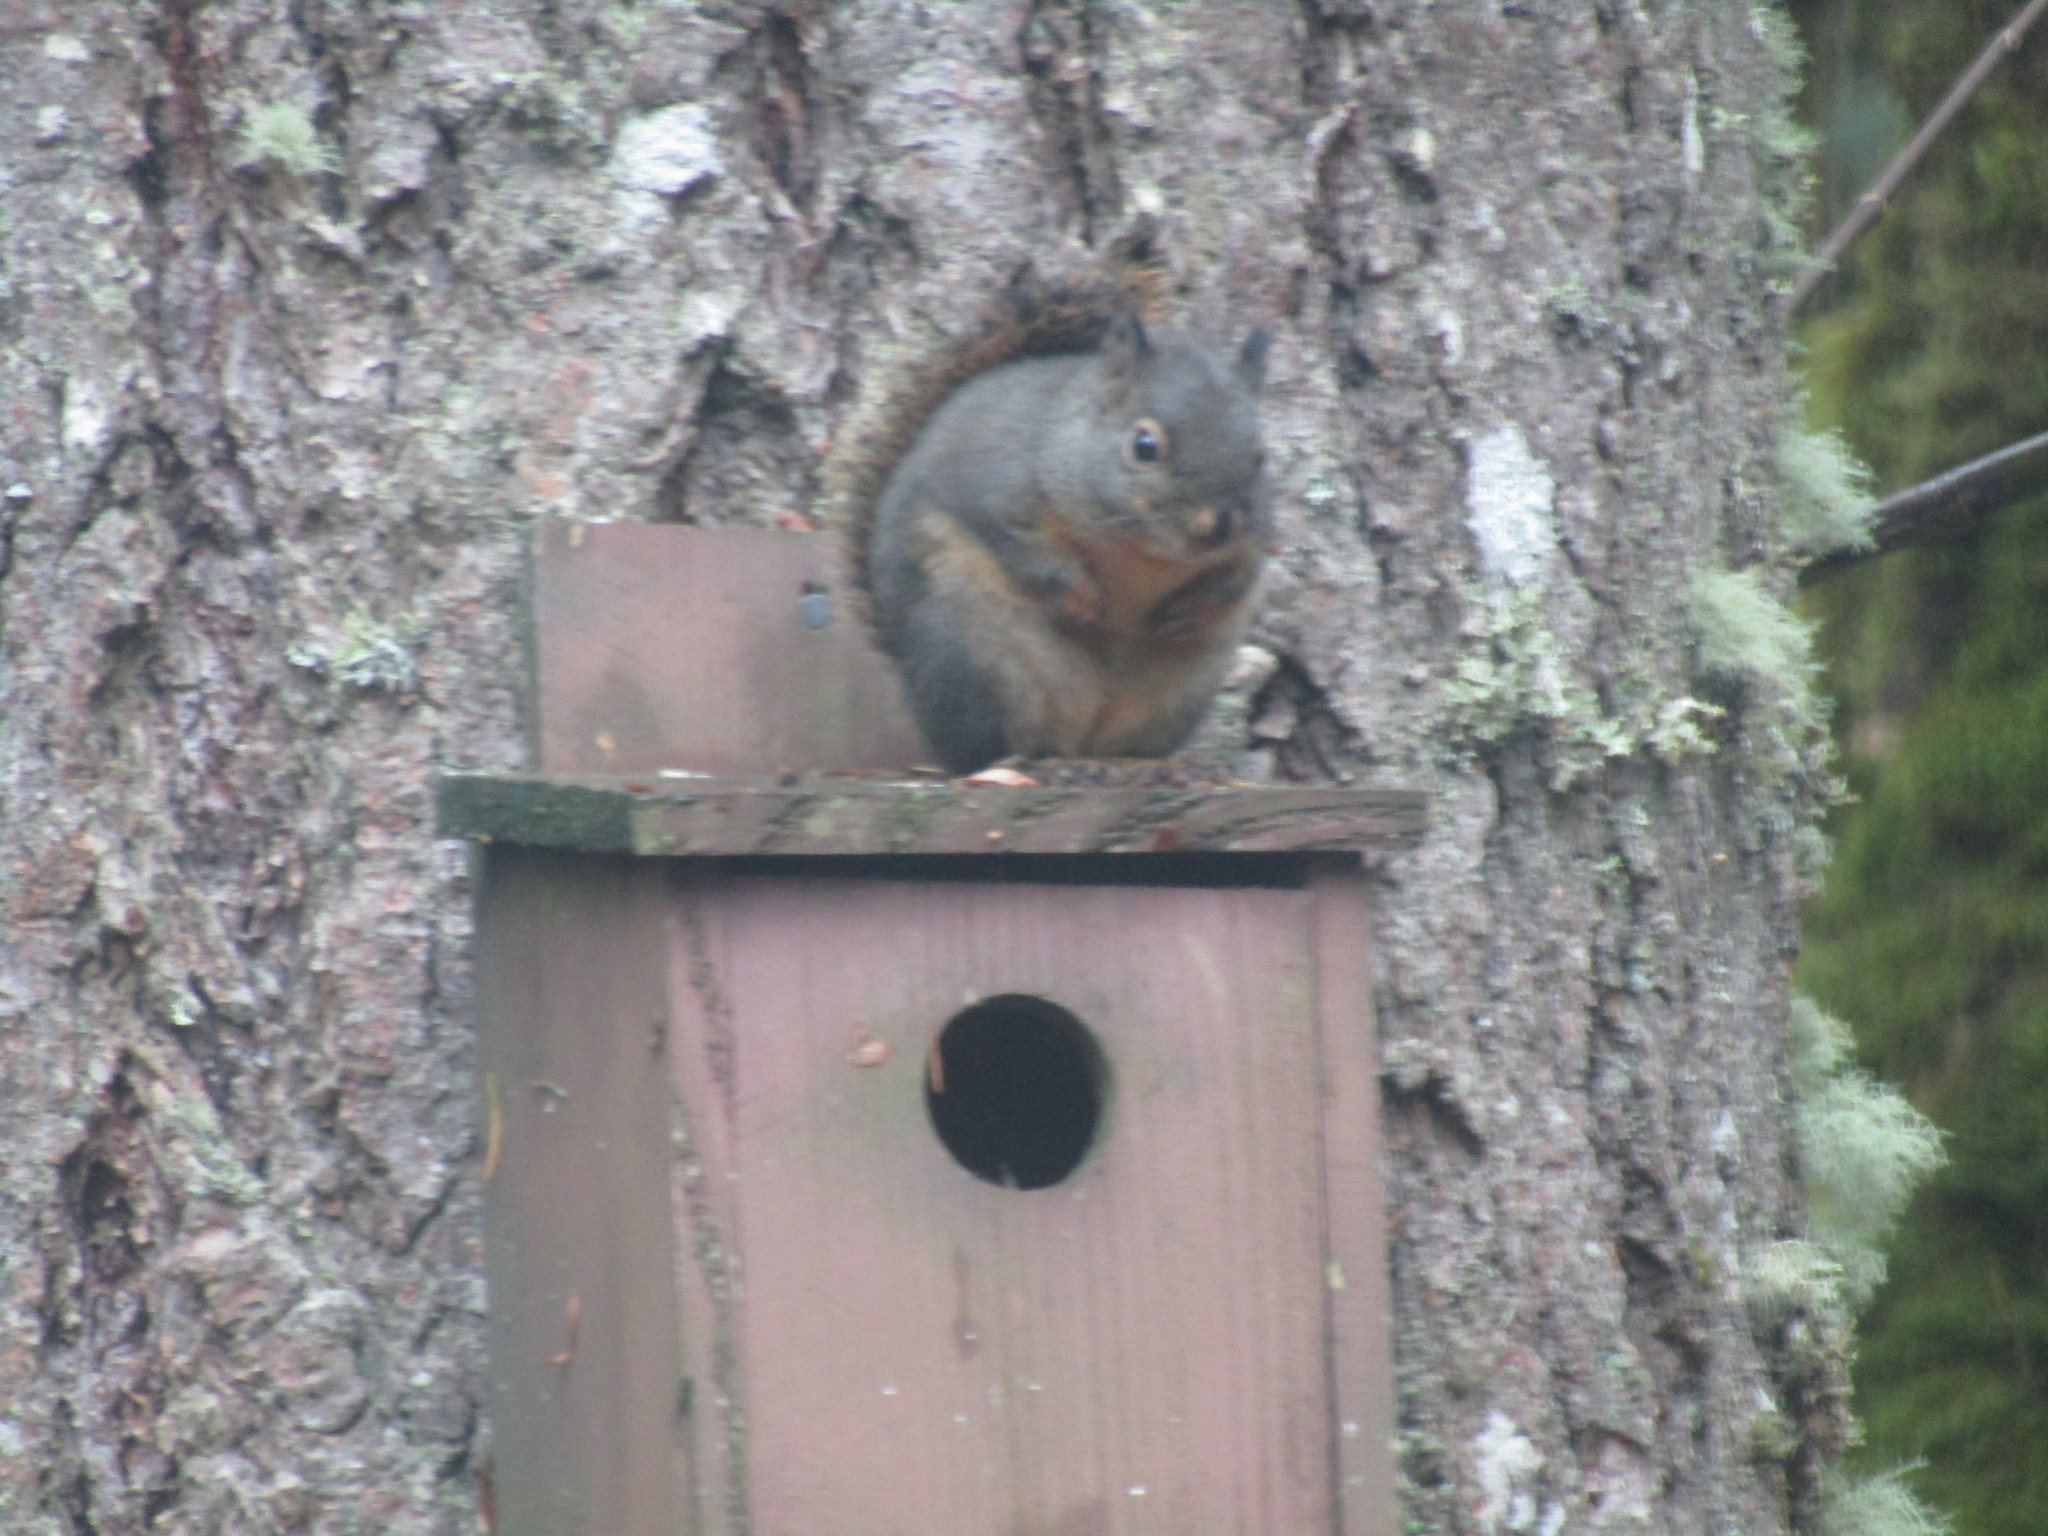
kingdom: Animalia
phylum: Chordata
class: Mammalia
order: Rodentia
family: Sciuridae
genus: Tamiasciurus
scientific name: Tamiasciurus douglasii
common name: Douglas's squirrel
